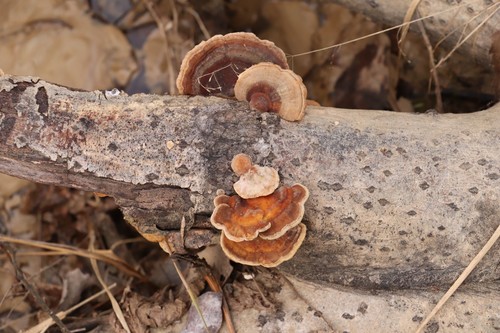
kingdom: Fungi
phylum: Basidiomycota
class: Agaricomycetes
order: Polyporales
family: Polyporaceae
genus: Trametes
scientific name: Trametes ochracea
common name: Ochre bracket
